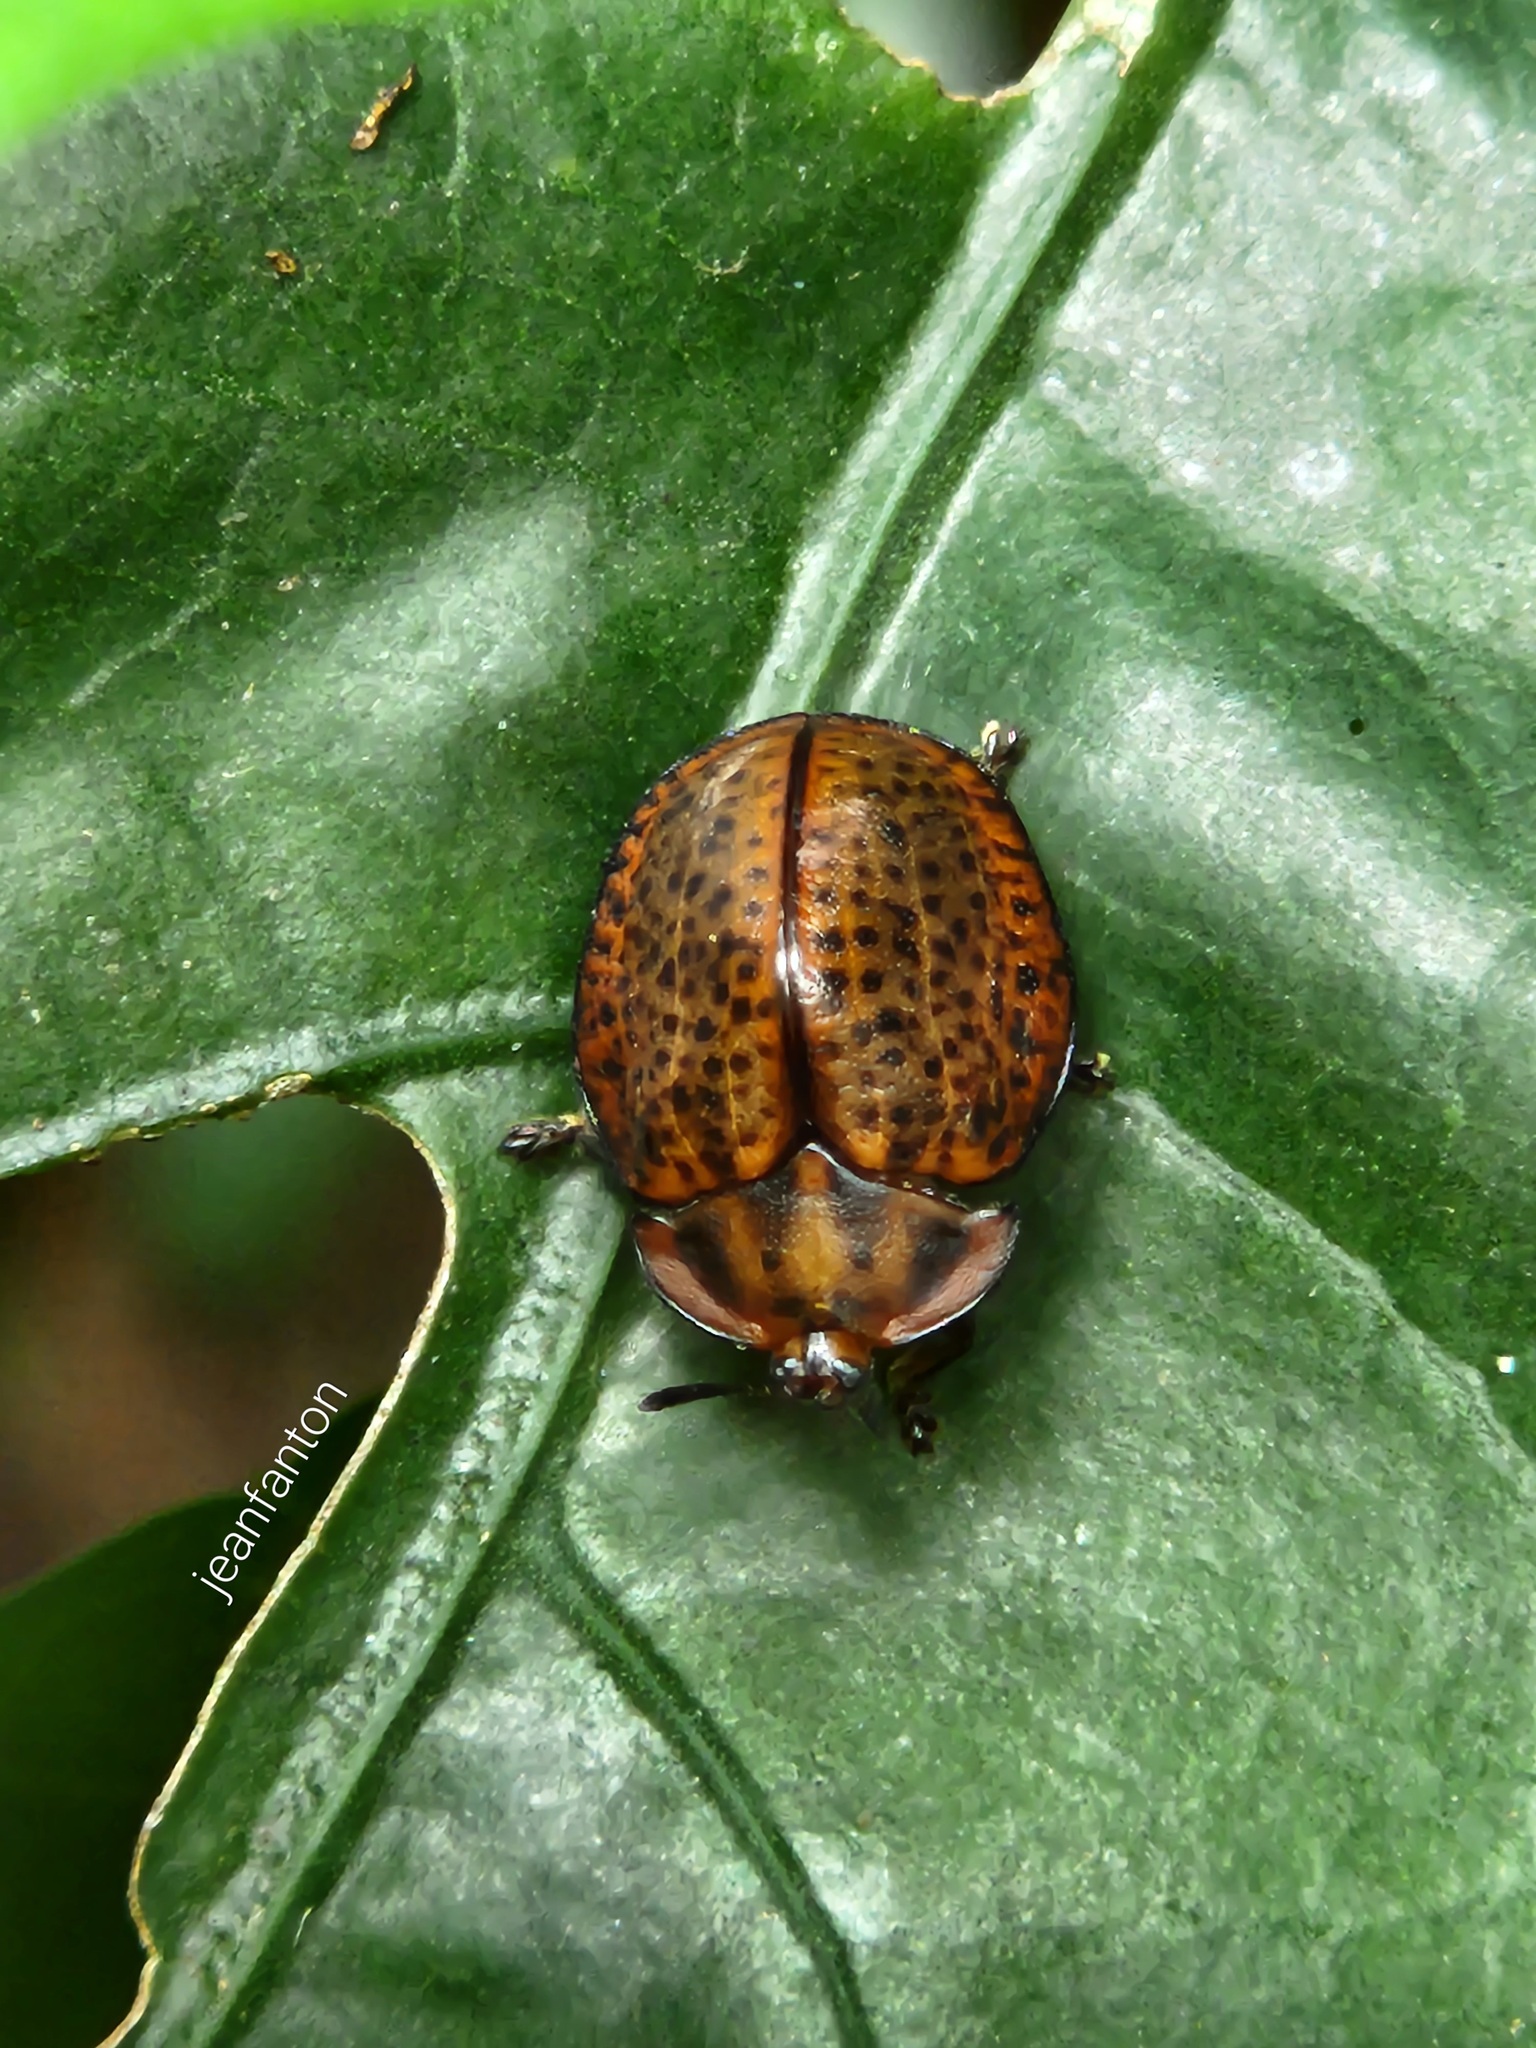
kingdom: Animalia
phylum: Arthropoda
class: Insecta
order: Coleoptera
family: Chrysomelidae
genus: Chelymorpha
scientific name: Chelymorpha inflata
